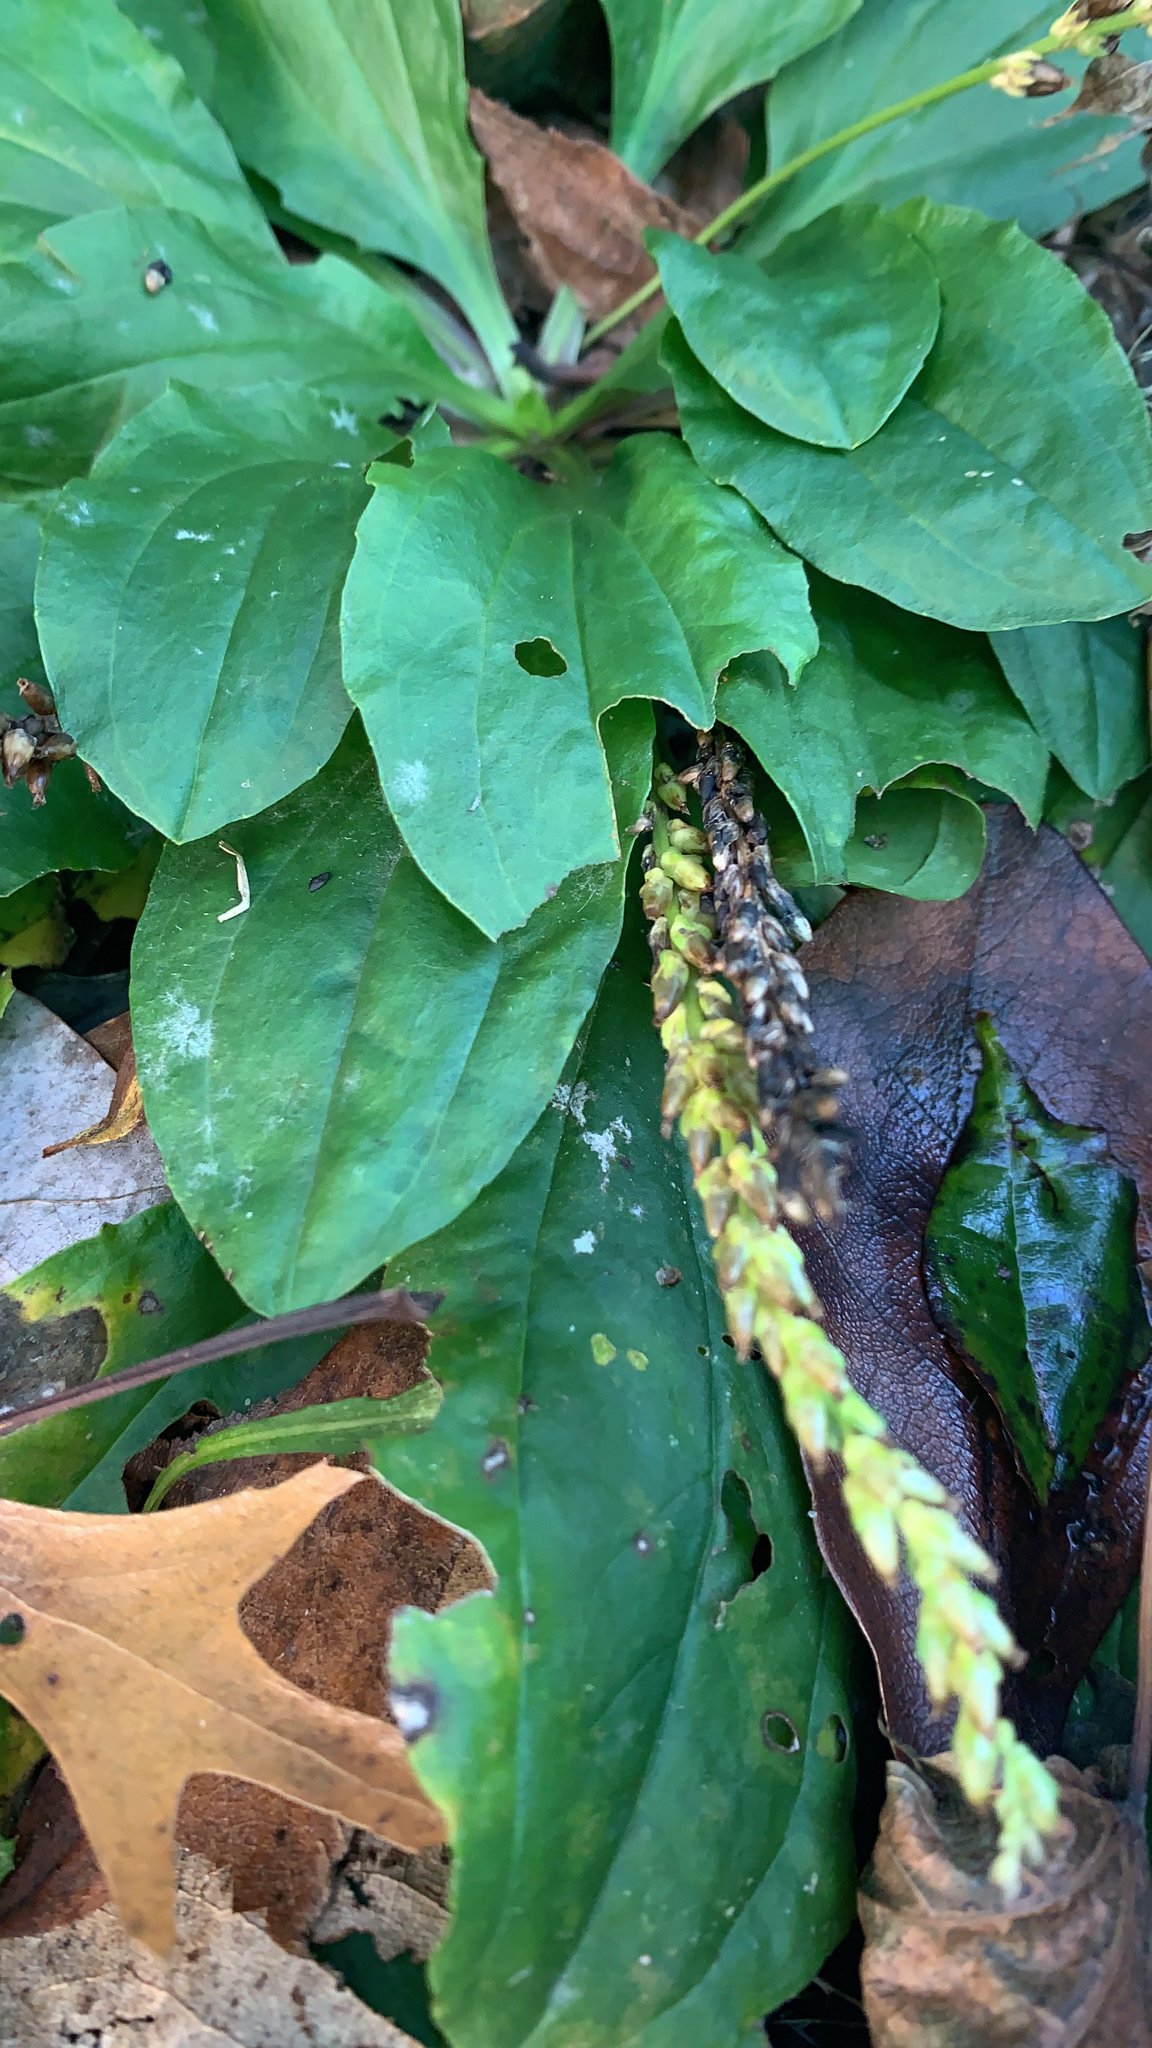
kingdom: Plantae
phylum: Tracheophyta
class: Magnoliopsida
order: Lamiales
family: Plantaginaceae
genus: Plantago
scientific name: Plantago major
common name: Common plantain
